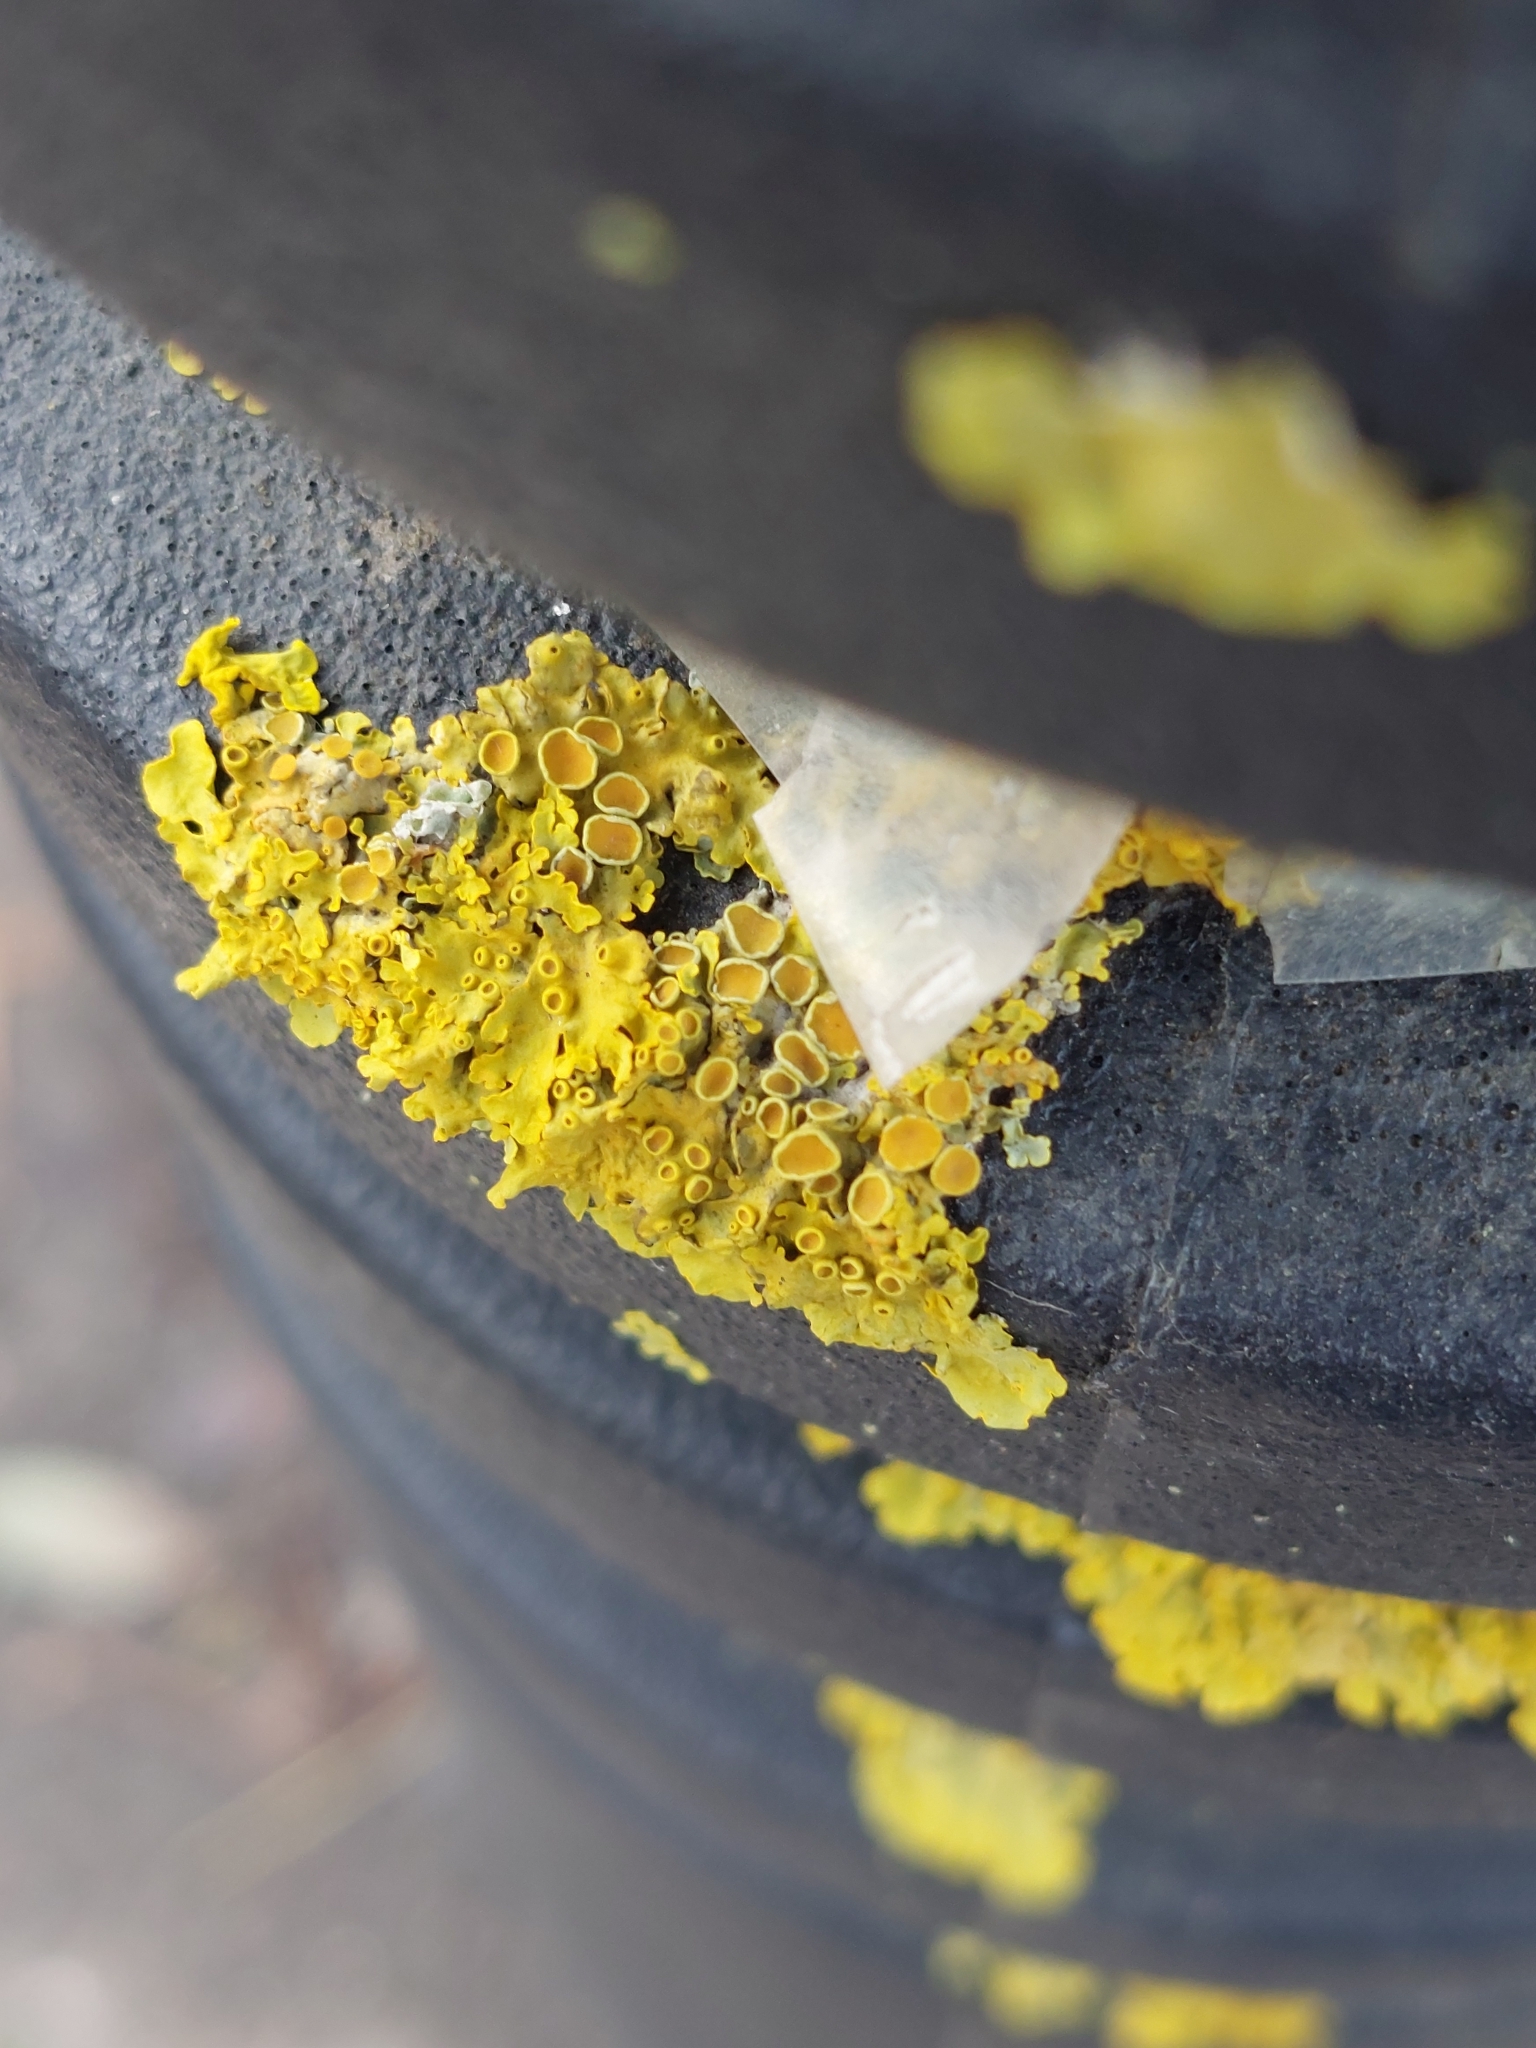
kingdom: Fungi
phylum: Ascomycota
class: Lecanoromycetes
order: Teloschistales
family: Teloschistaceae
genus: Xanthoria
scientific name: Xanthoria parietina
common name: Common orange lichen
